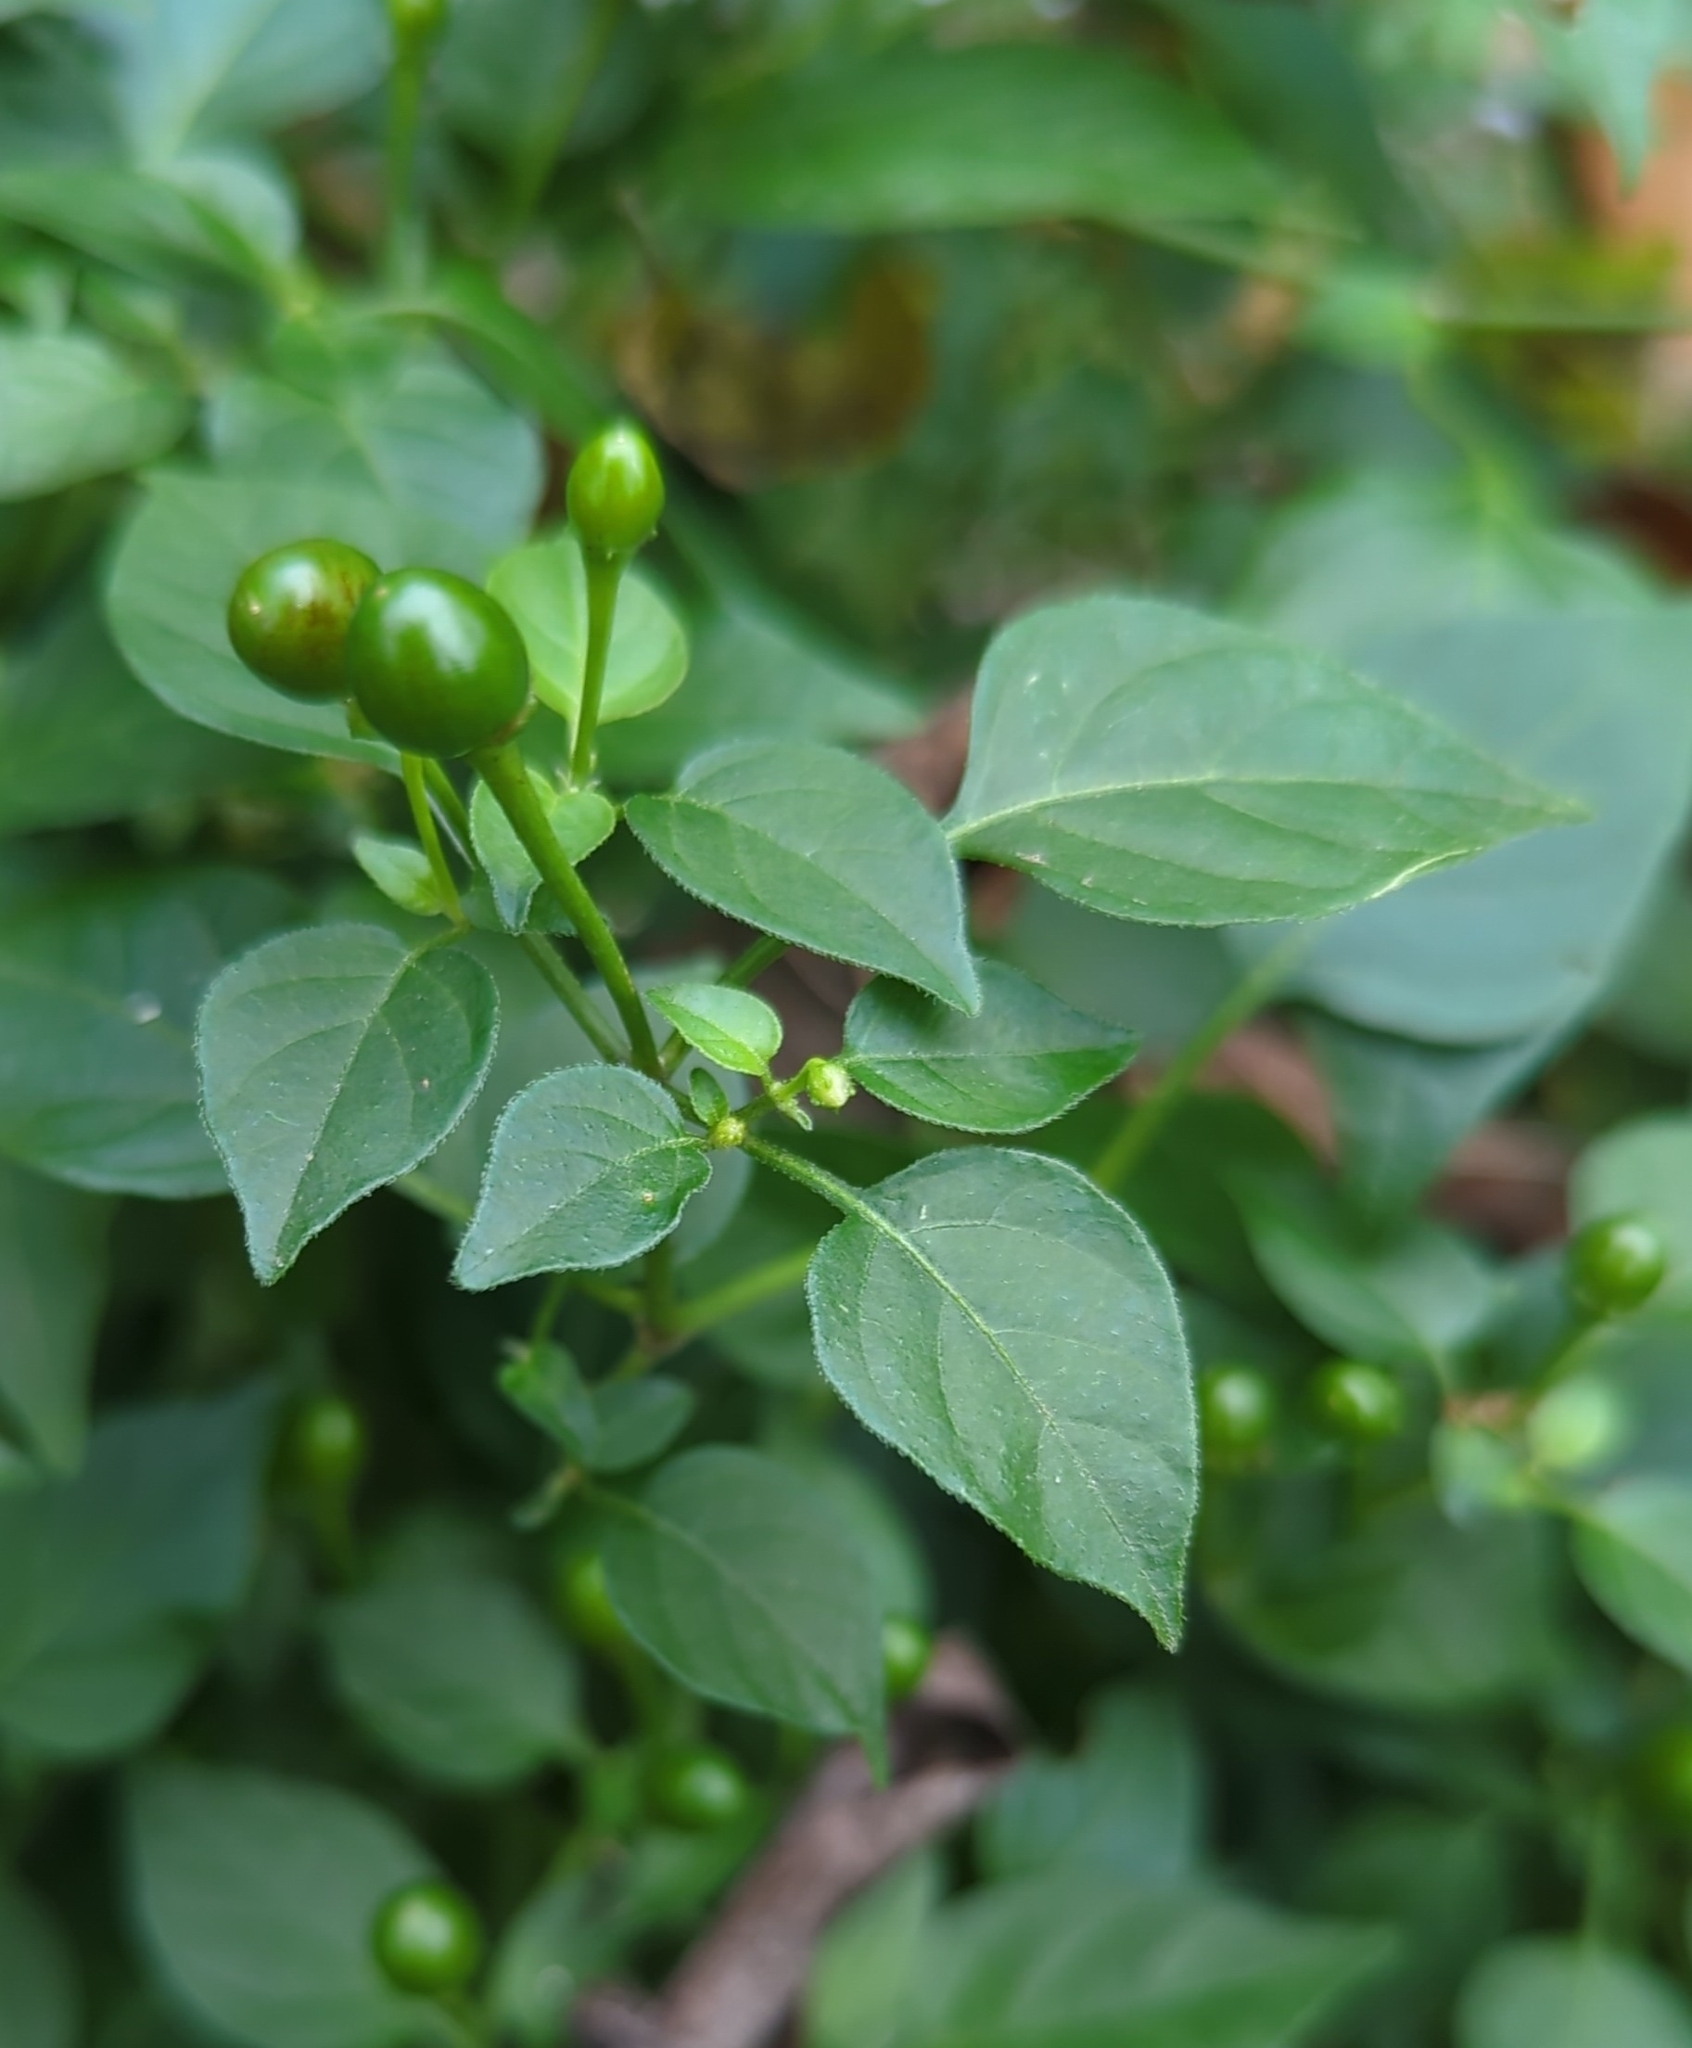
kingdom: Plantae
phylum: Tracheophyta
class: Magnoliopsida
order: Solanales
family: Solanaceae
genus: Capsicum
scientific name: Capsicum annuum
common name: Sweet pepper
